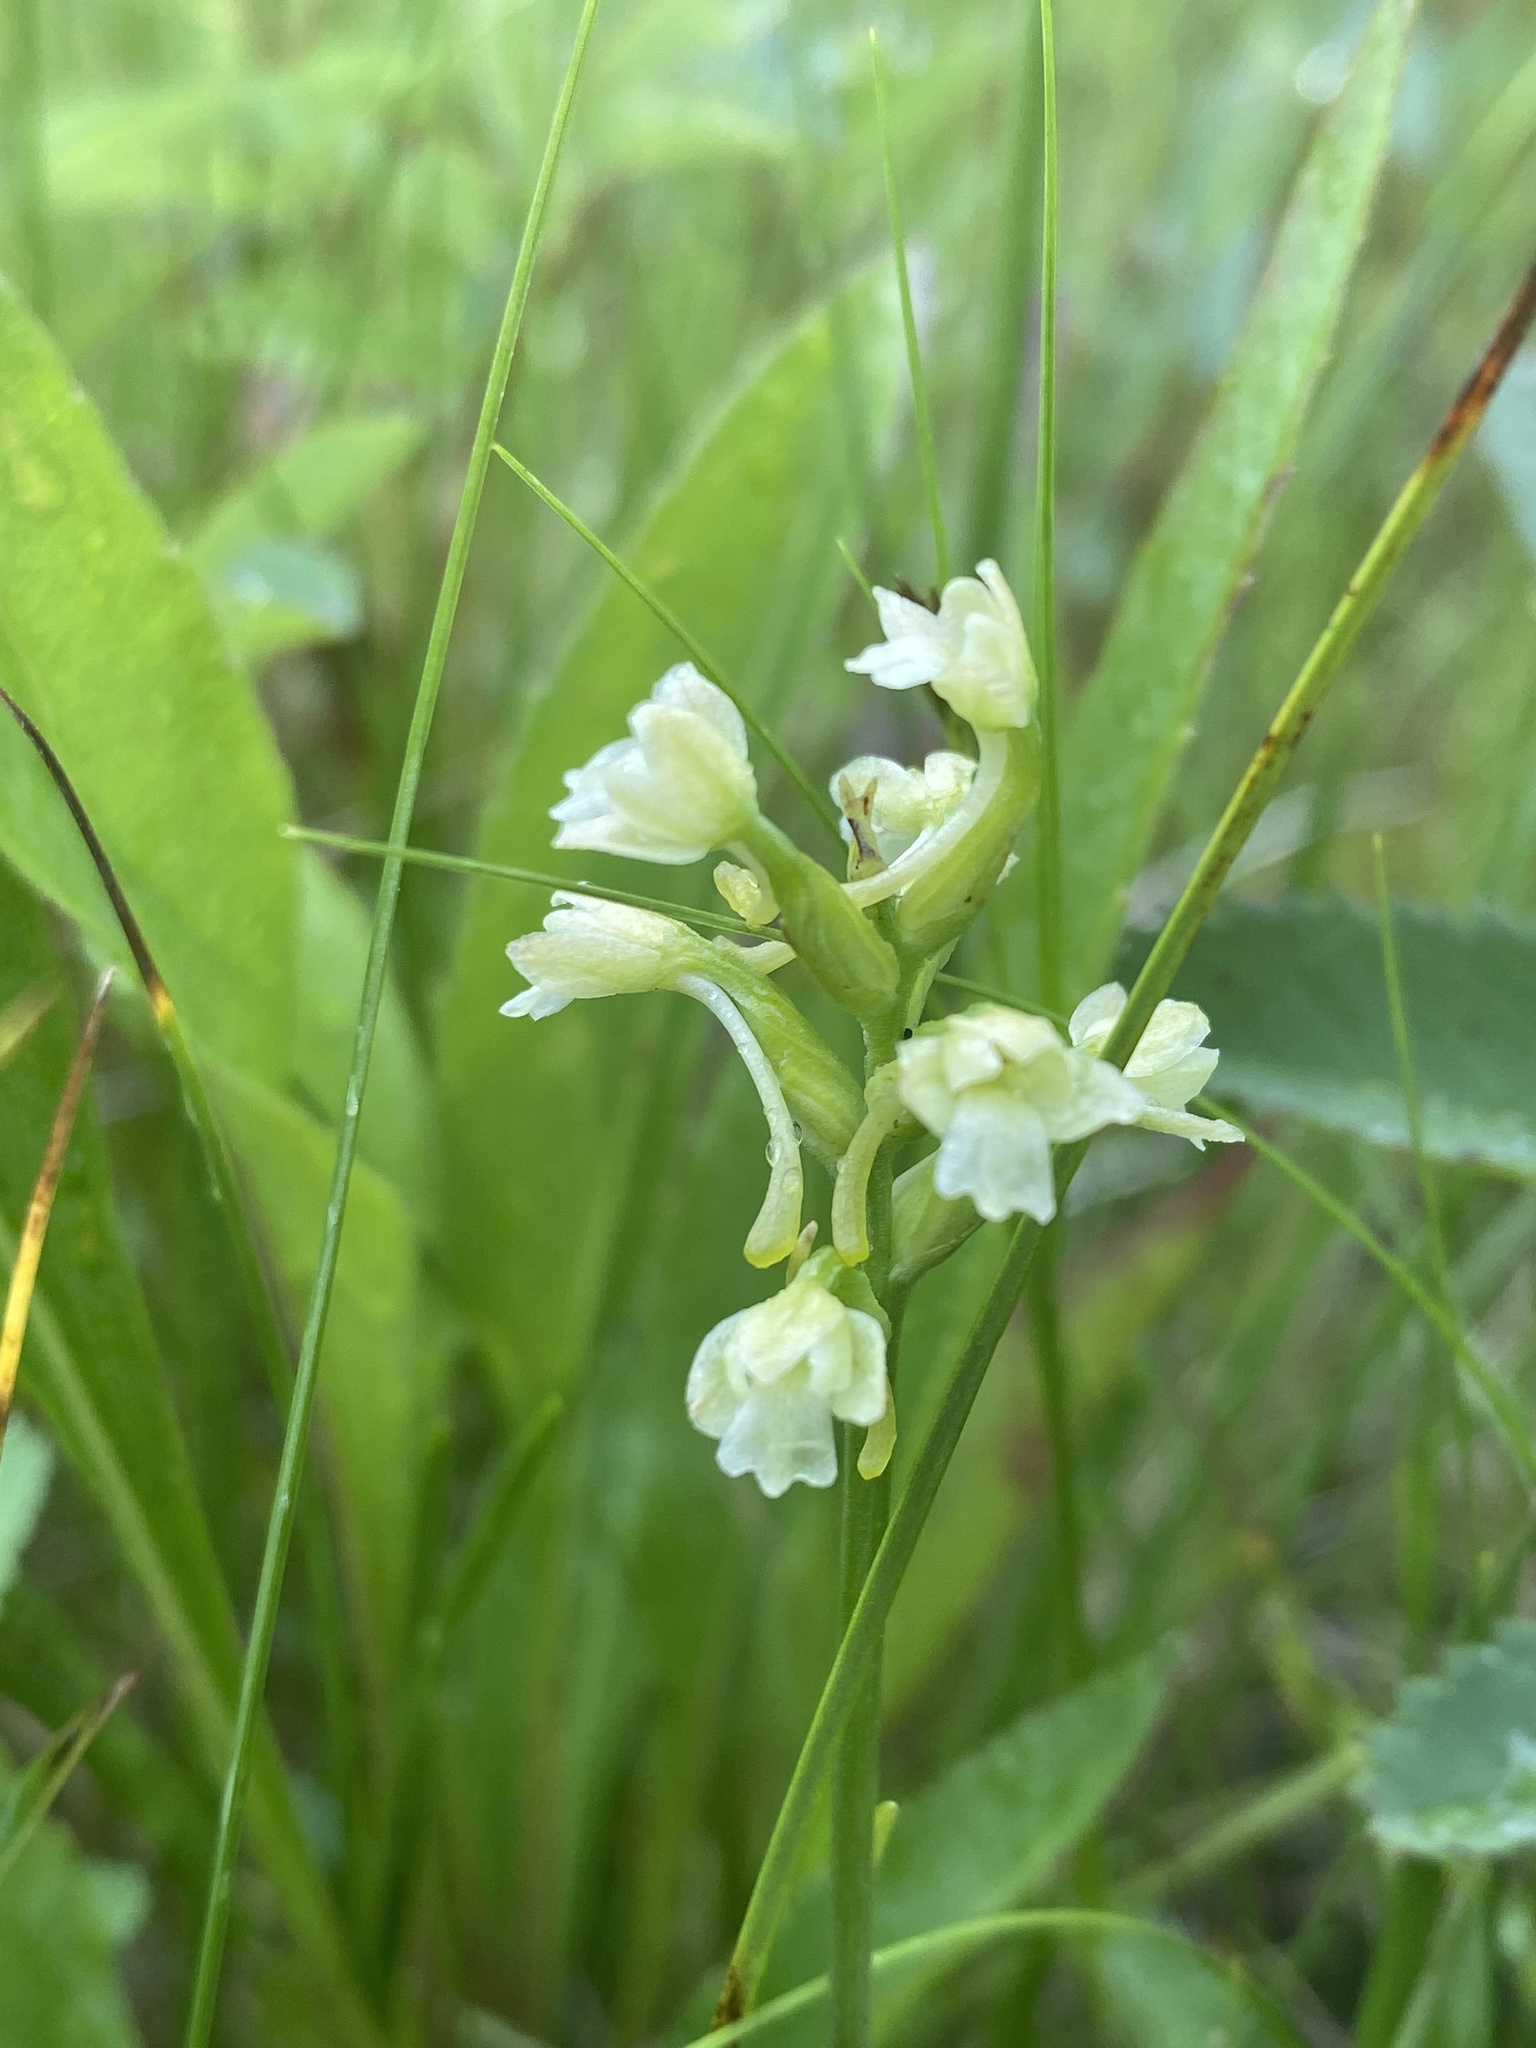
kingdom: Plantae
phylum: Tracheophyta
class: Liliopsida
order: Asparagales
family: Orchidaceae
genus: Platanthera
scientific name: Platanthera clavellata
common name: Club-spur orchid
